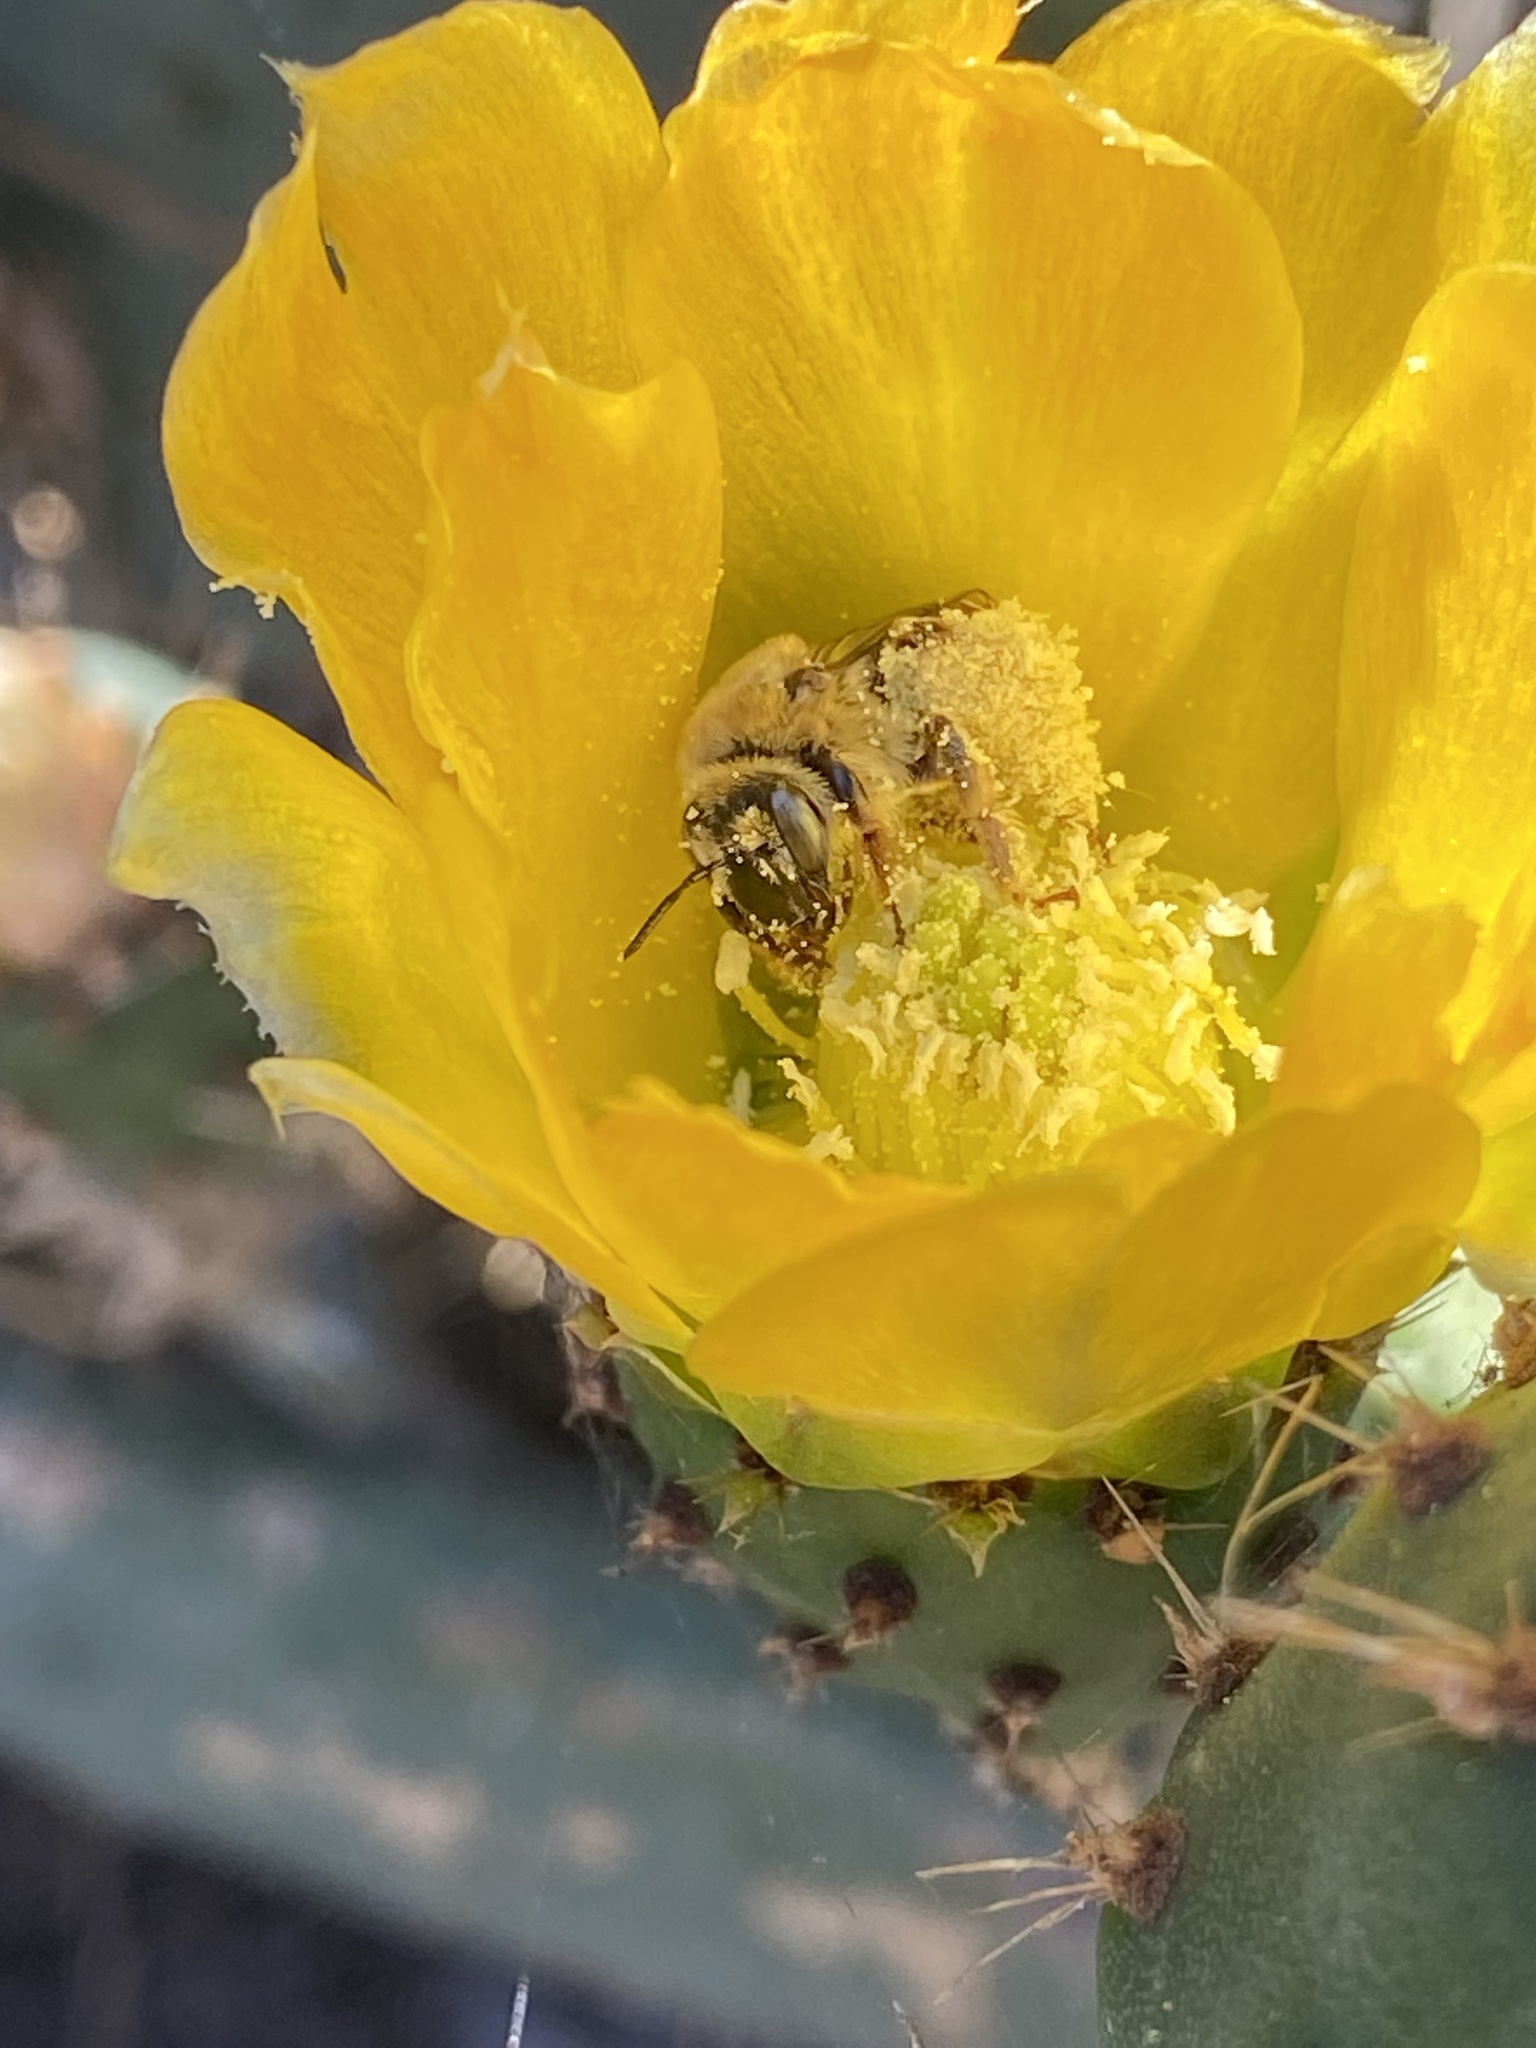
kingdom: Animalia
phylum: Arthropoda
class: Insecta
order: Hymenoptera
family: Apidae
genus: Diadasia
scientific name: Diadasia
